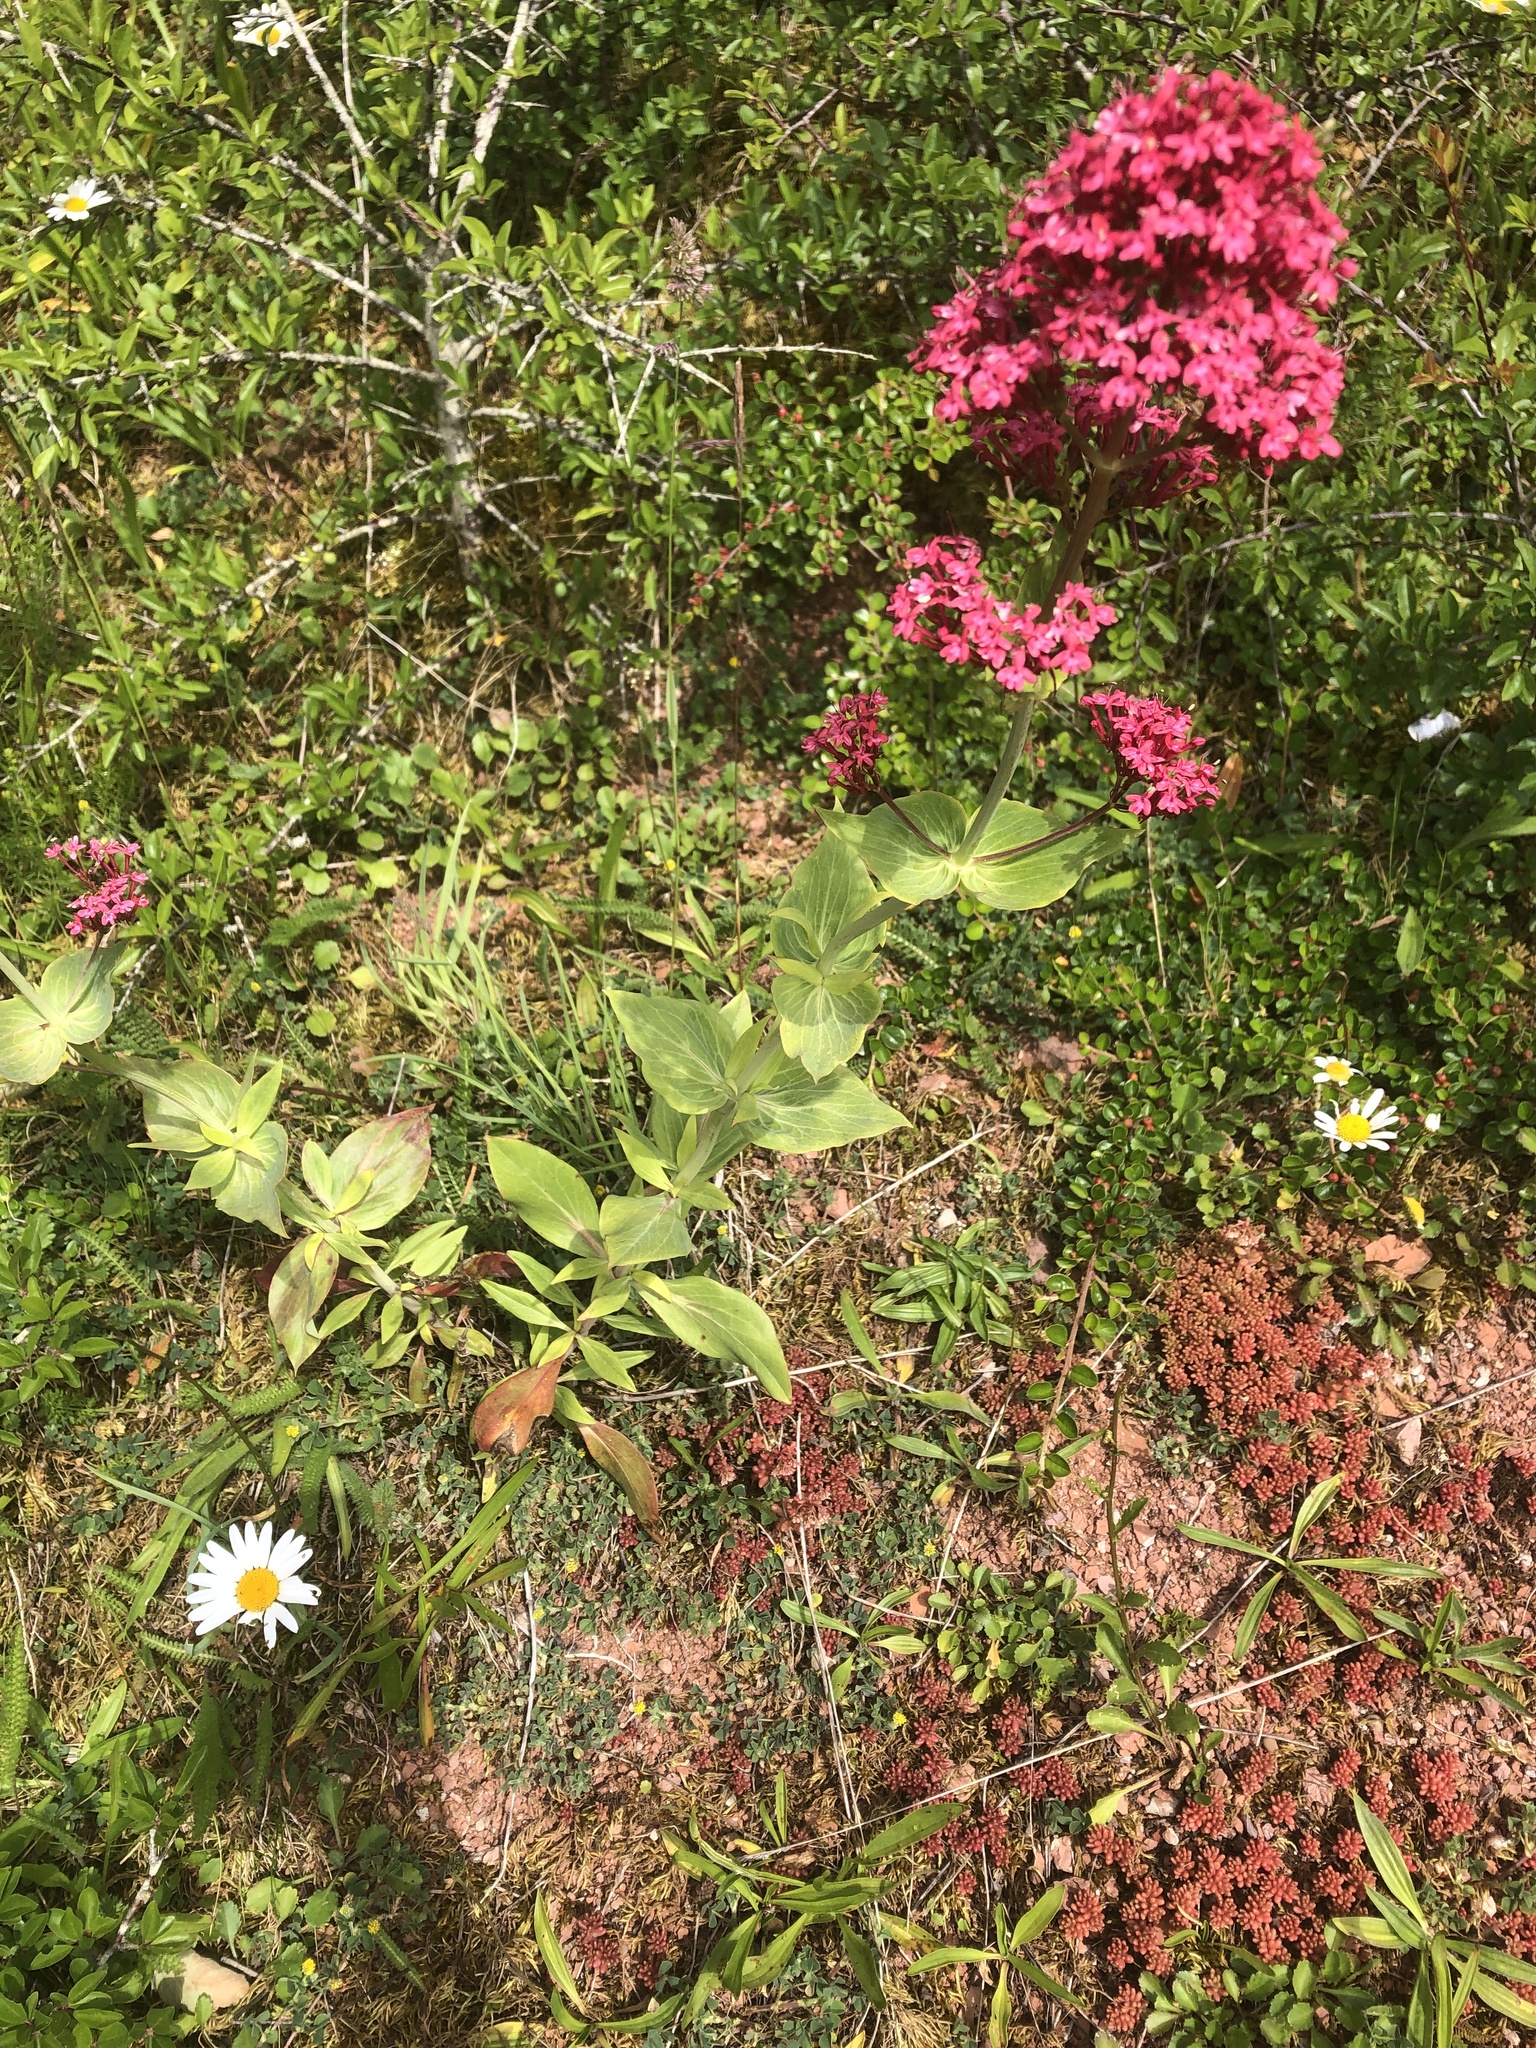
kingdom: Plantae
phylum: Tracheophyta
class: Magnoliopsida
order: Dipsacales
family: Caprifoliaceae
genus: Centranthus
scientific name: Centranthus ruber
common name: Red valerian
